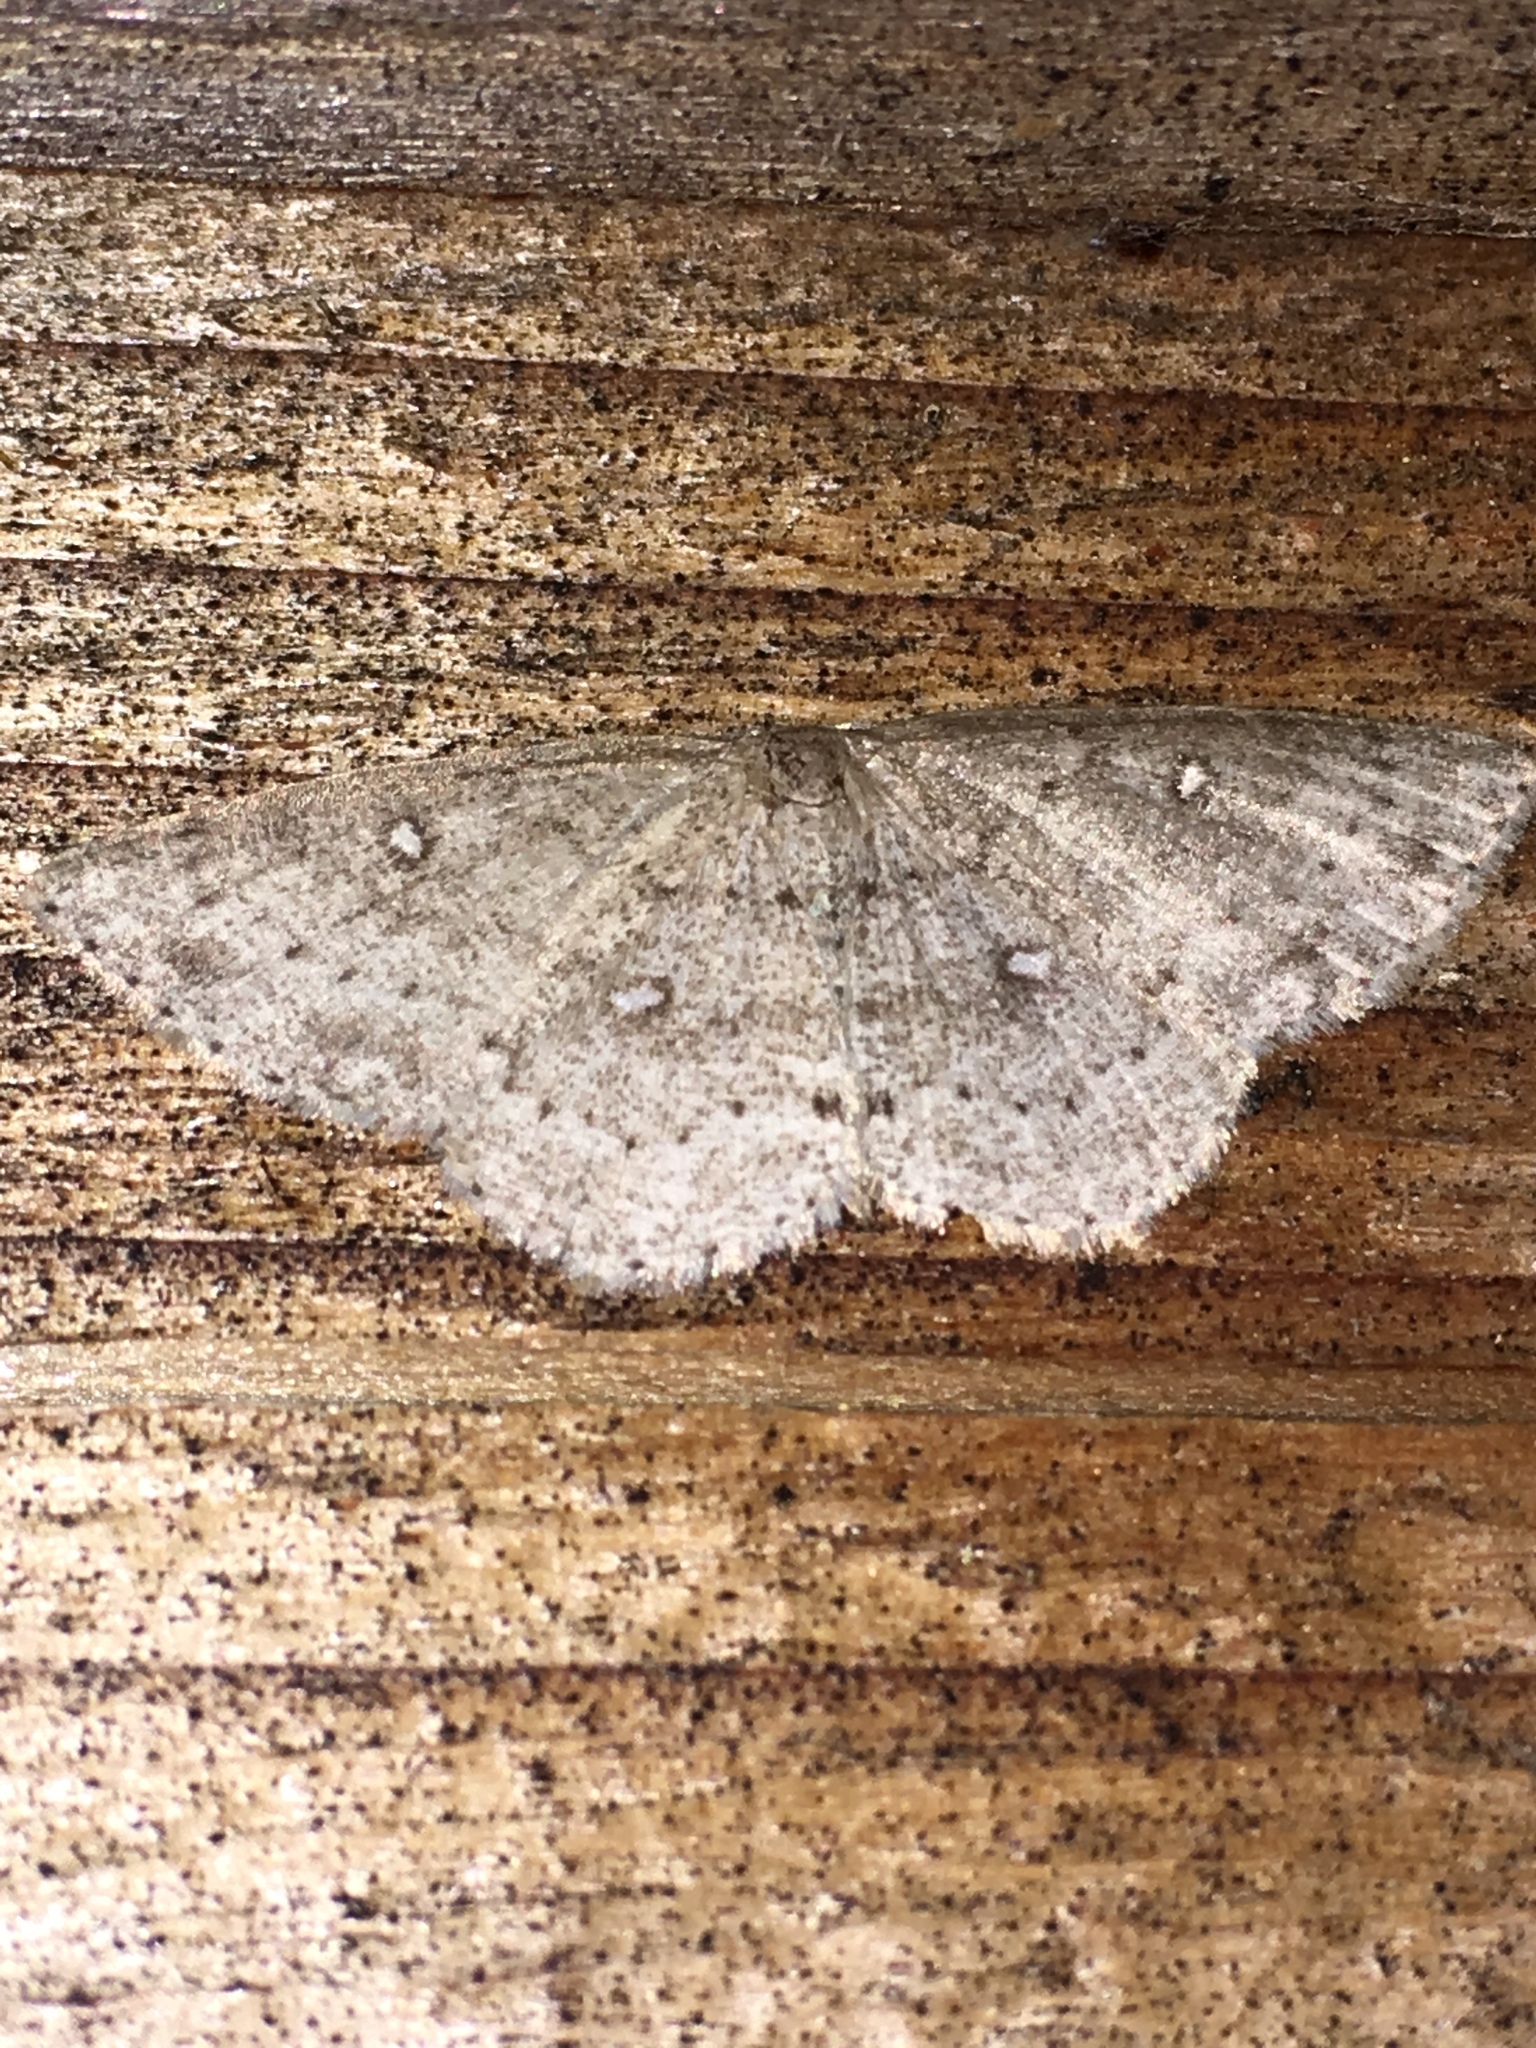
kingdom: Animalia
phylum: Arthropoda
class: Insecta
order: Lepidoptera
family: Geometridae
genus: Cyclophora
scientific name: Cyclophora pendulinaria
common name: Sweet fern geometer
